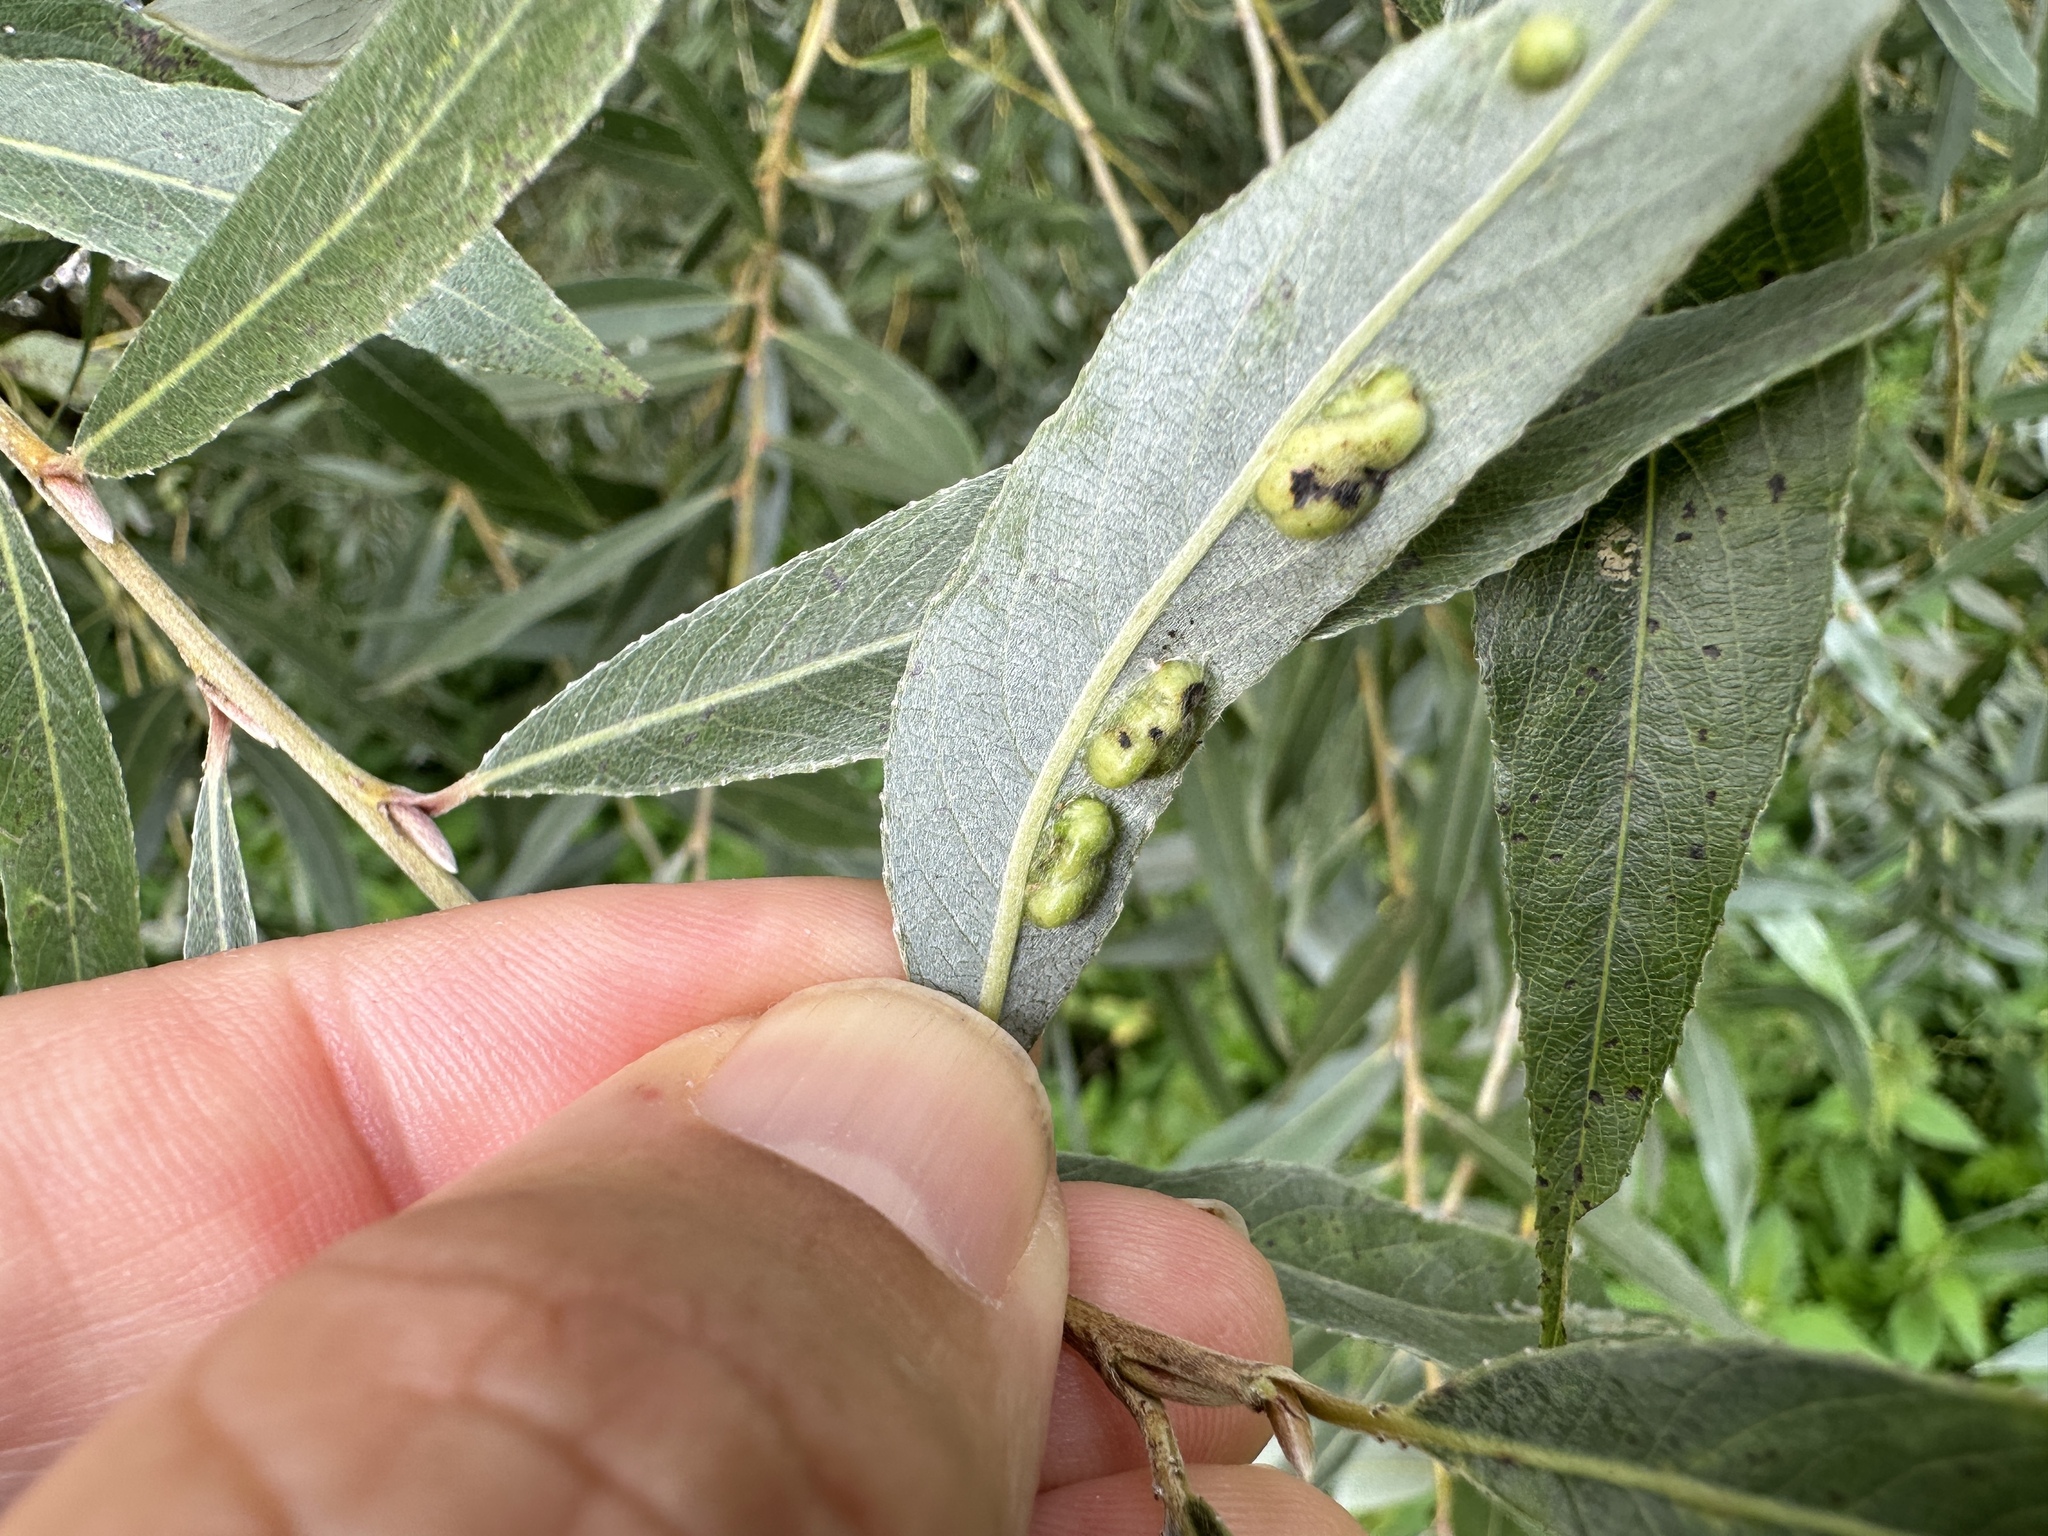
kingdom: Animalia
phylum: Arthropoda
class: Insecta
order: Hymenoptera
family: Tenthredinidae
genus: Pontania
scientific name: Pontania proxima
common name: Common sawfly
